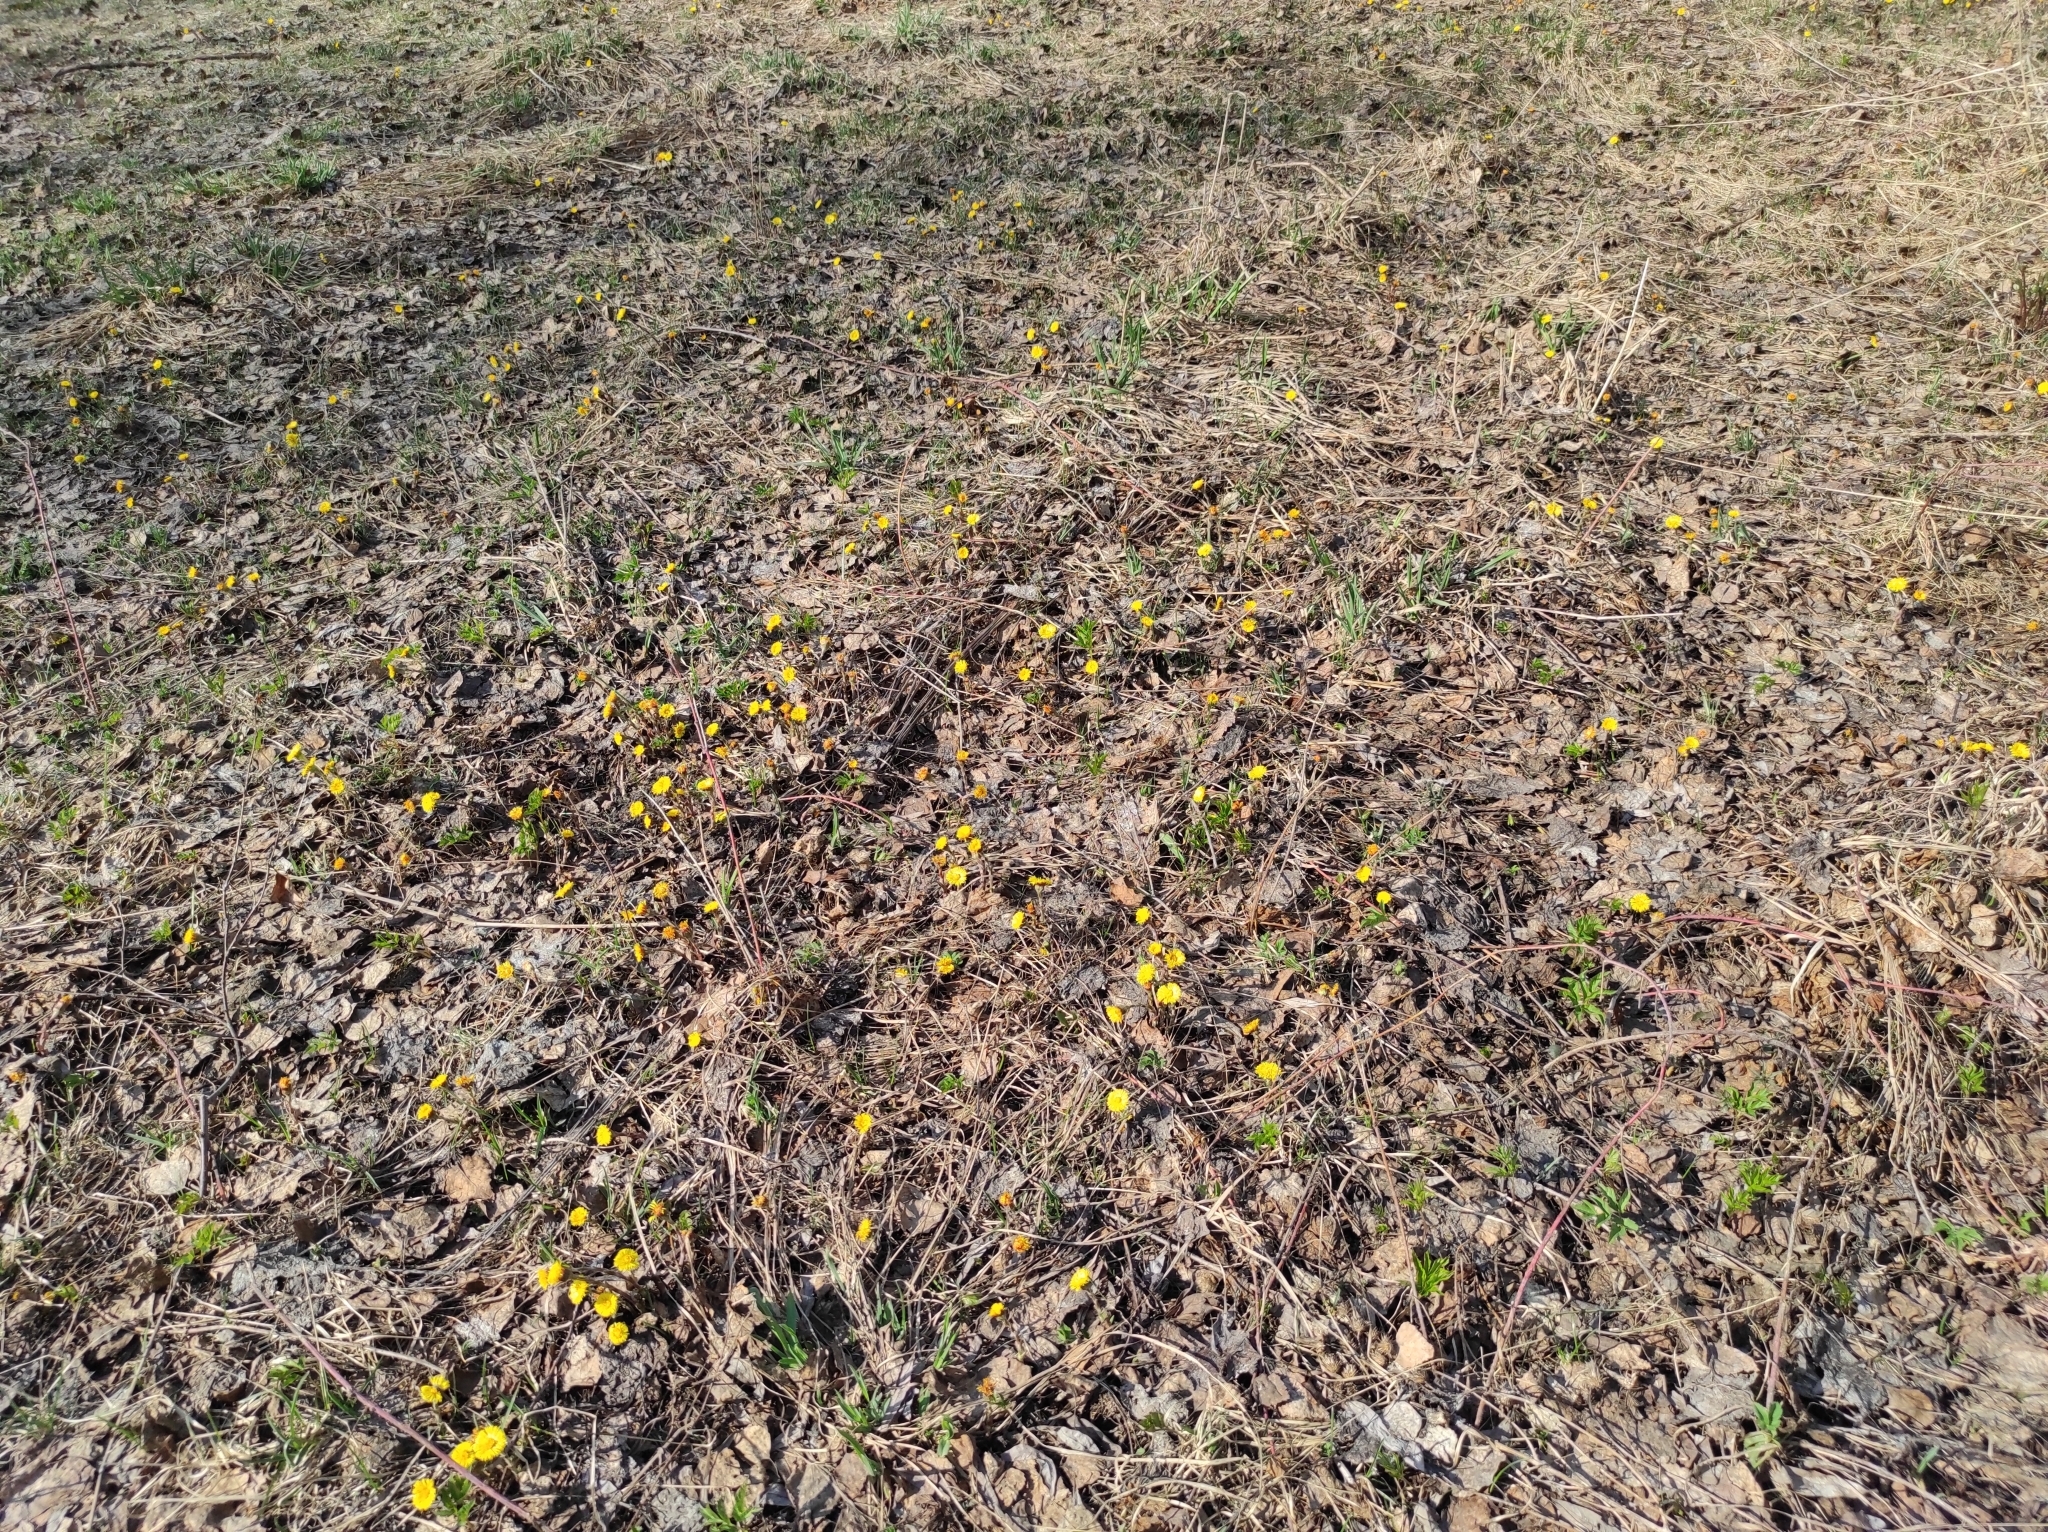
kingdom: Plantae
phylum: Tracheophyta
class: Magnoliopsida
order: Asterales
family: Asteraceae
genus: Tussilago
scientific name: Tussilago farfara
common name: Coltsfoot
